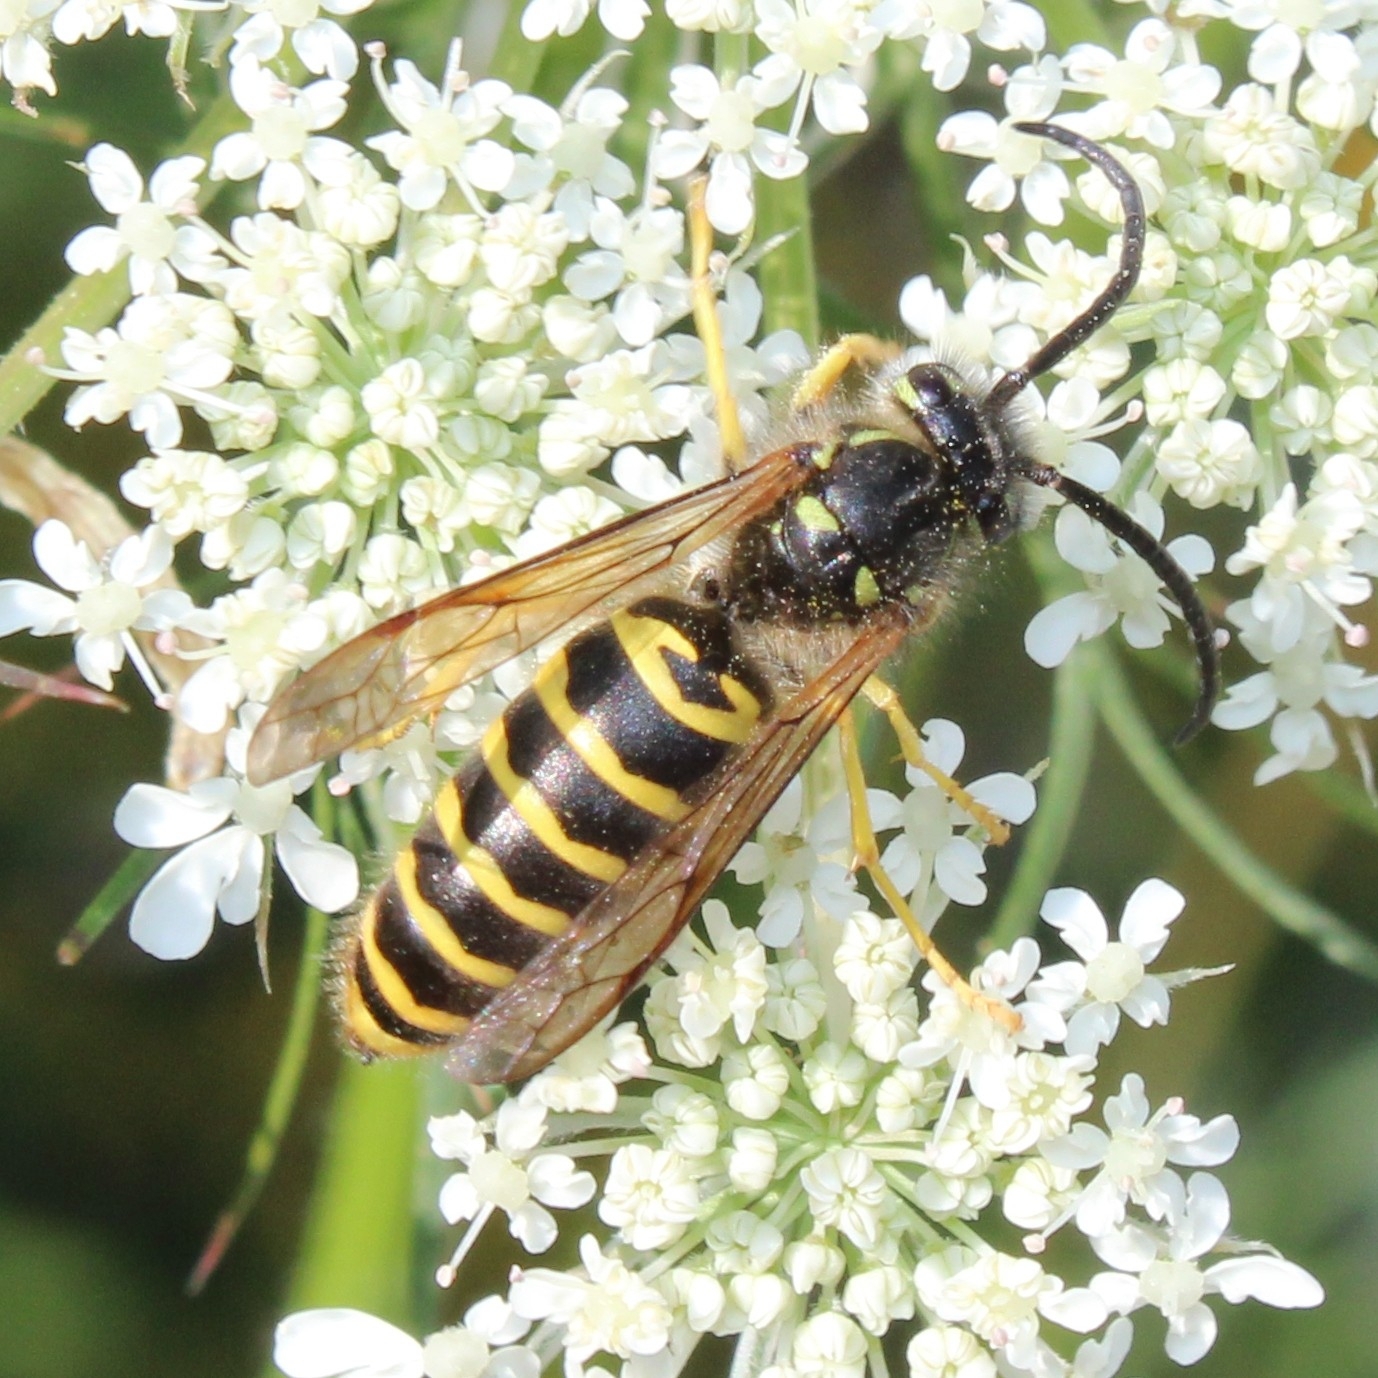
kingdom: Animalia
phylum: Arthropoda
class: Insecta
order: Hymenoptera
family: Vespidae
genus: Vespula
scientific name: Vespula maculifrons
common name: Eastern yellowjacket
